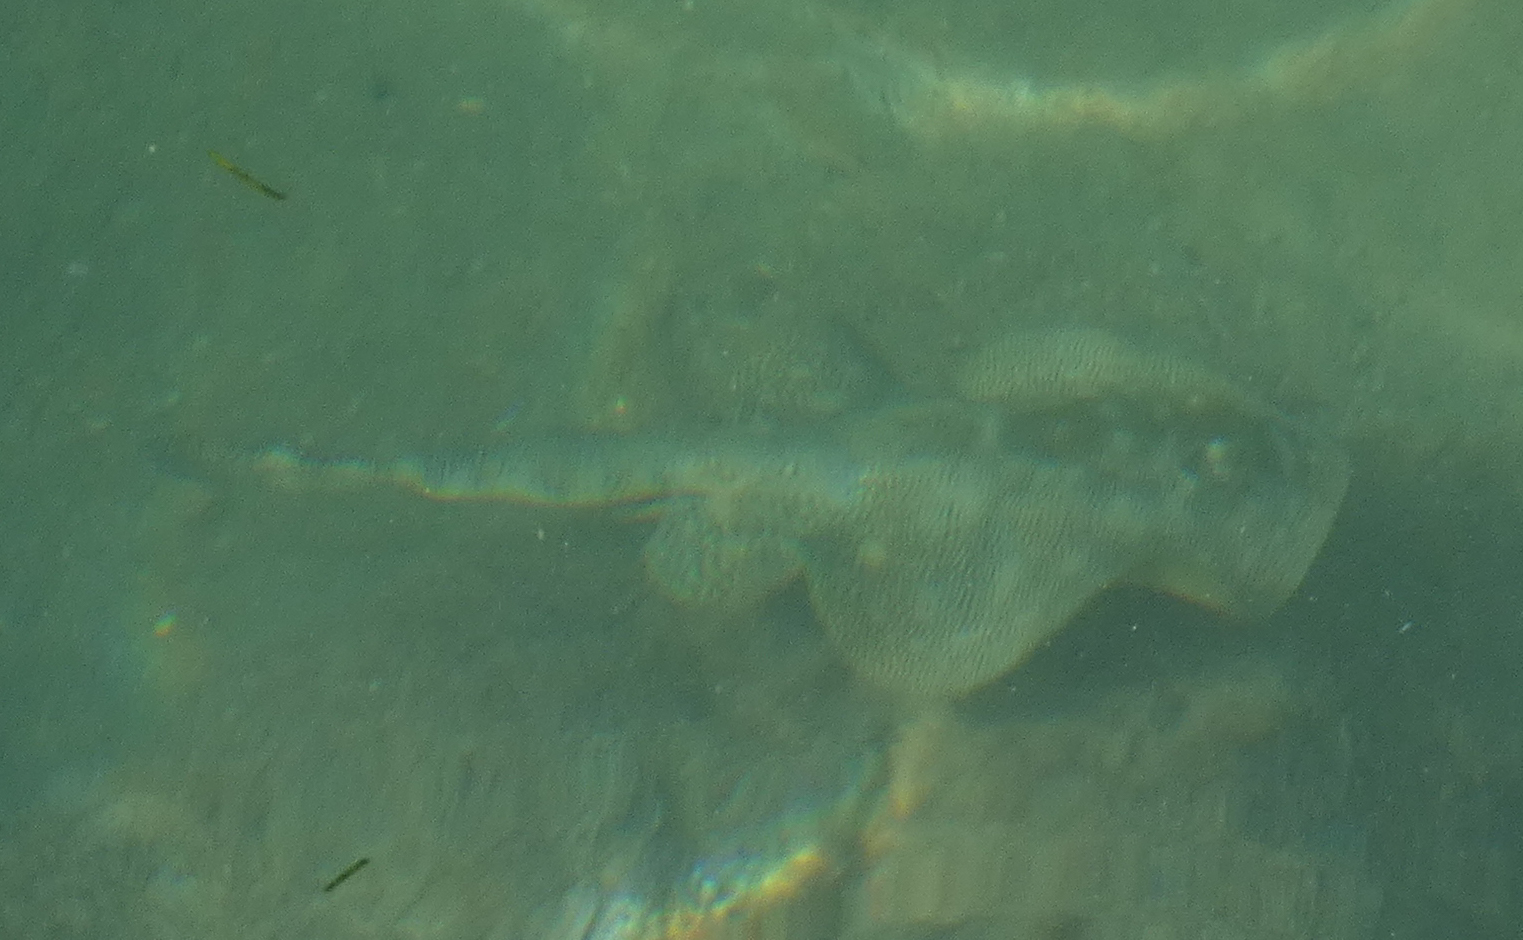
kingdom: Animalia
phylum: Chordata
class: Elasmobranchii
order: Myliobatiformes
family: Urotrygonidae
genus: Urobatis
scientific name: Urobatis jamaicensis
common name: Yellow stingray
